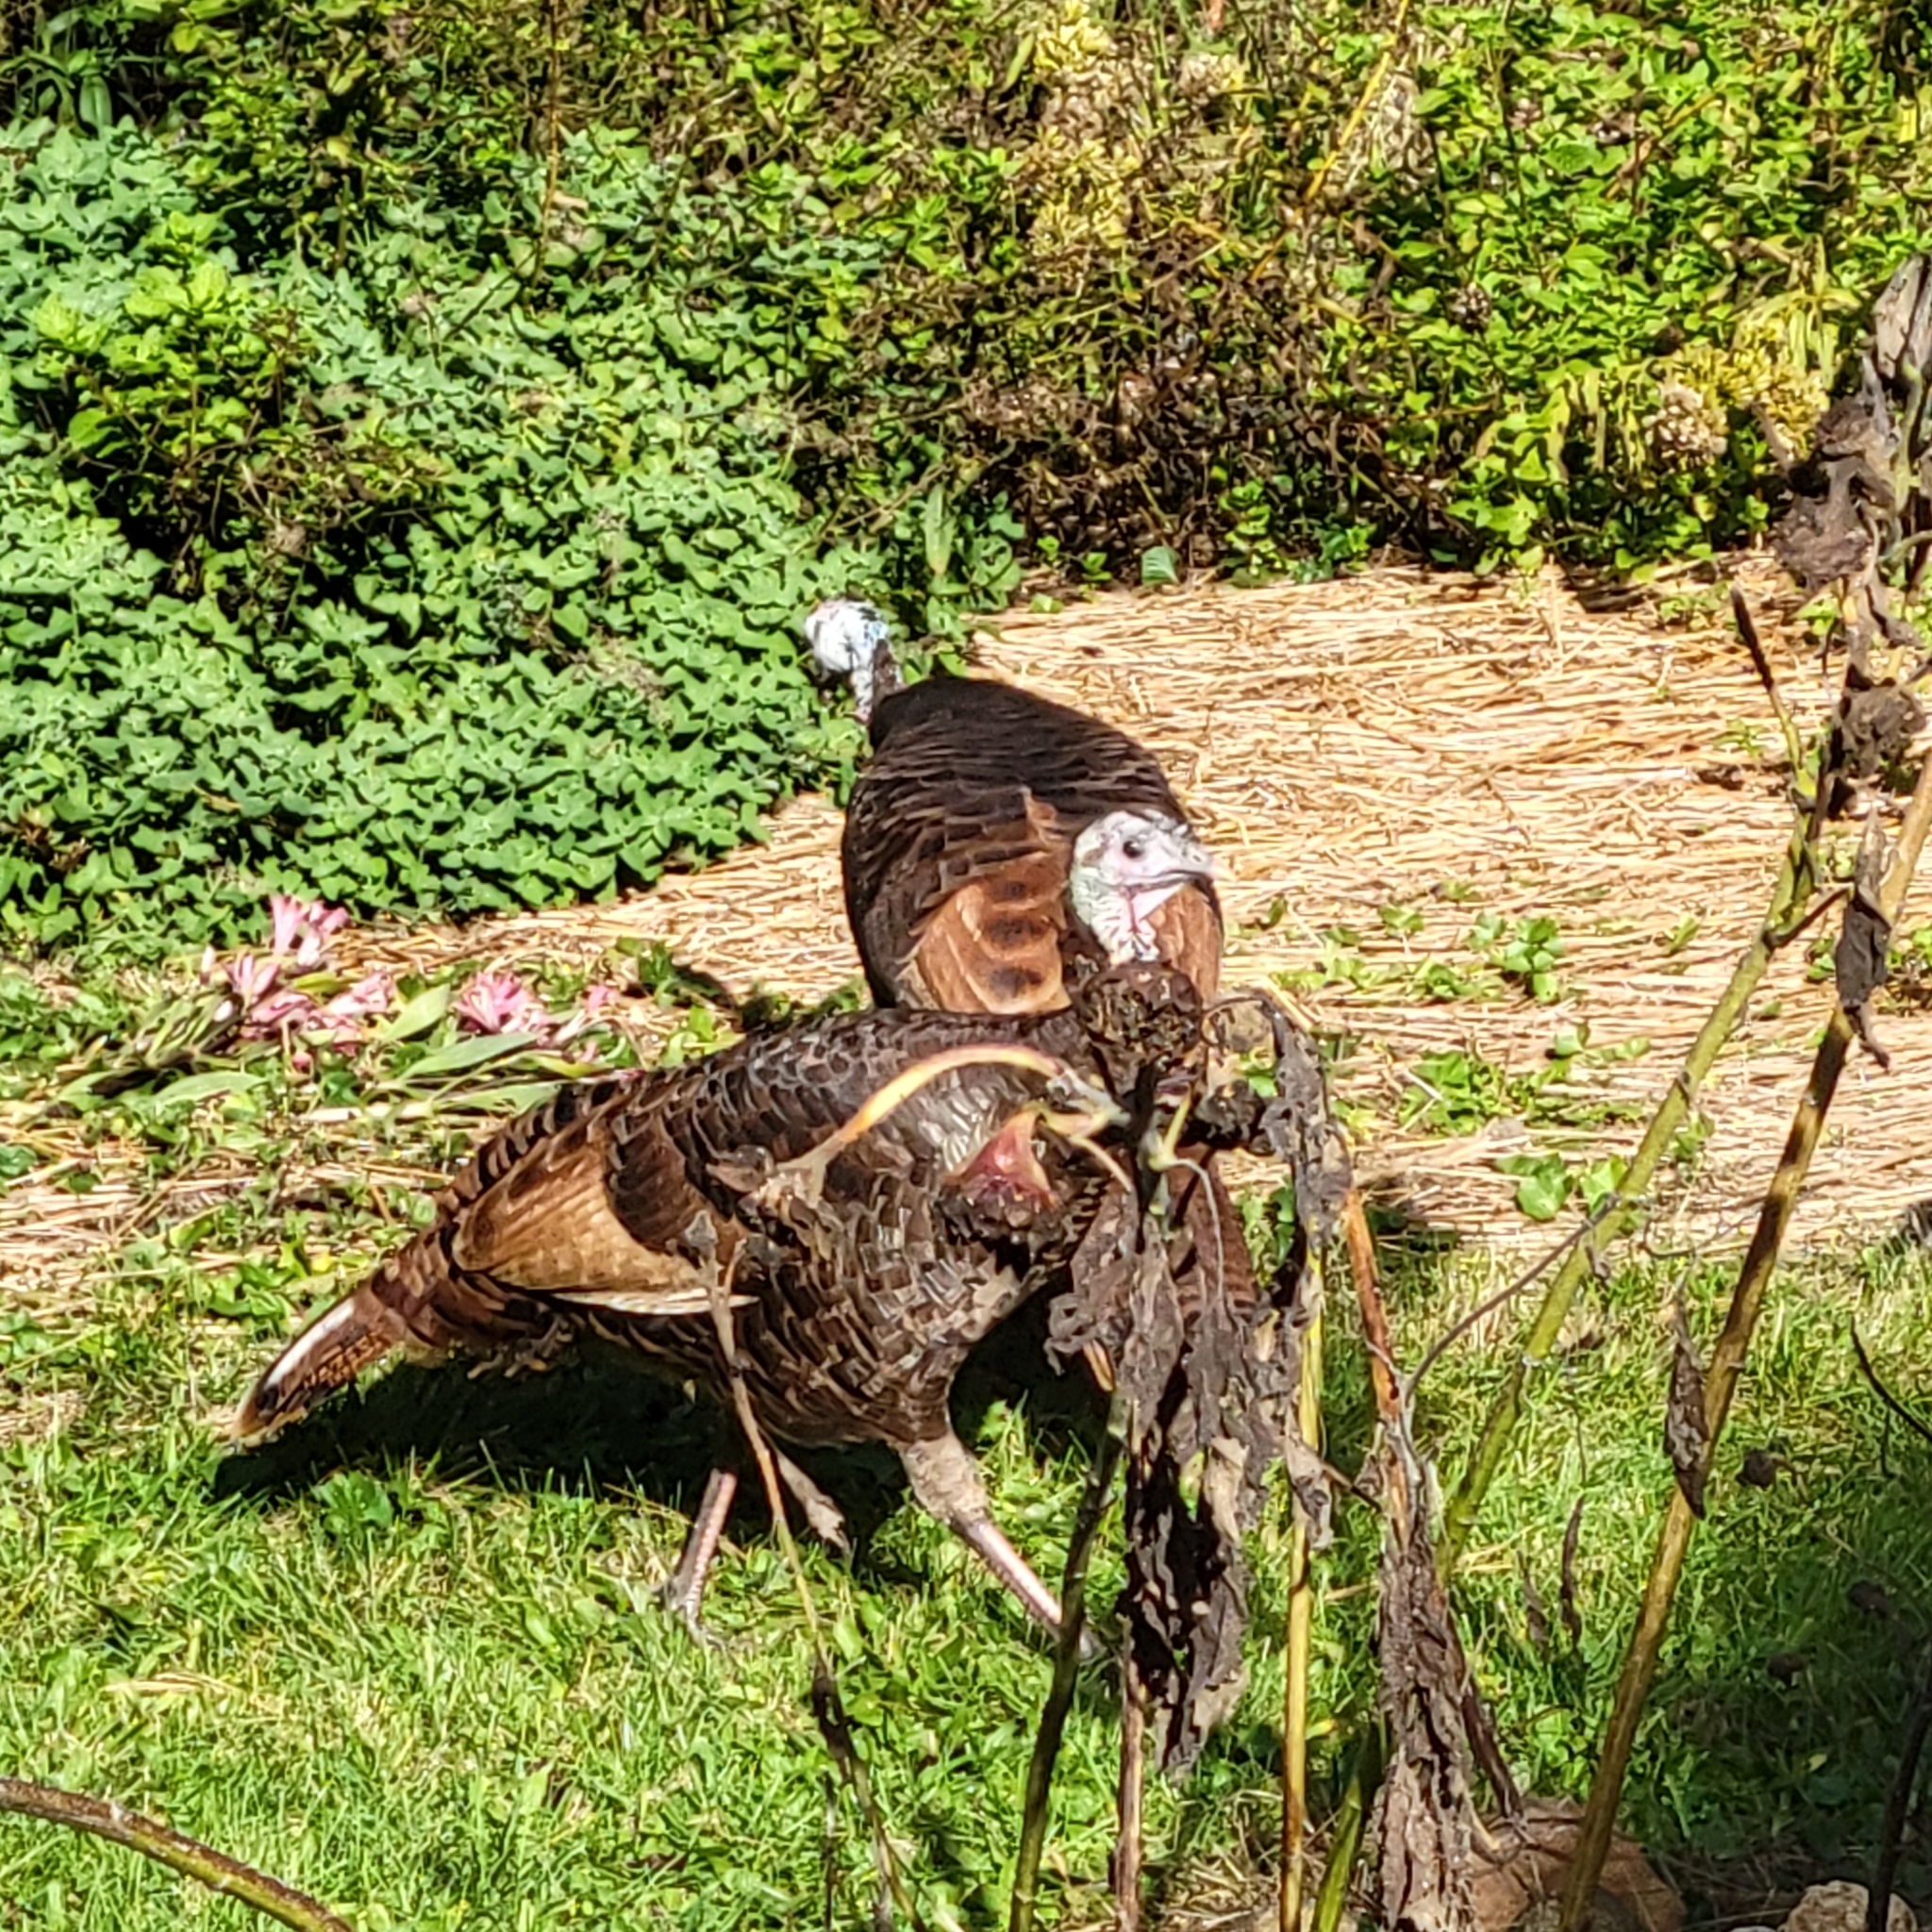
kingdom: Animalia
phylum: Chordata
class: Aves
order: Galliformes
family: Phasianidae
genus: Meleagris
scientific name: Meleagris gallopavo
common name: Wild turkey
